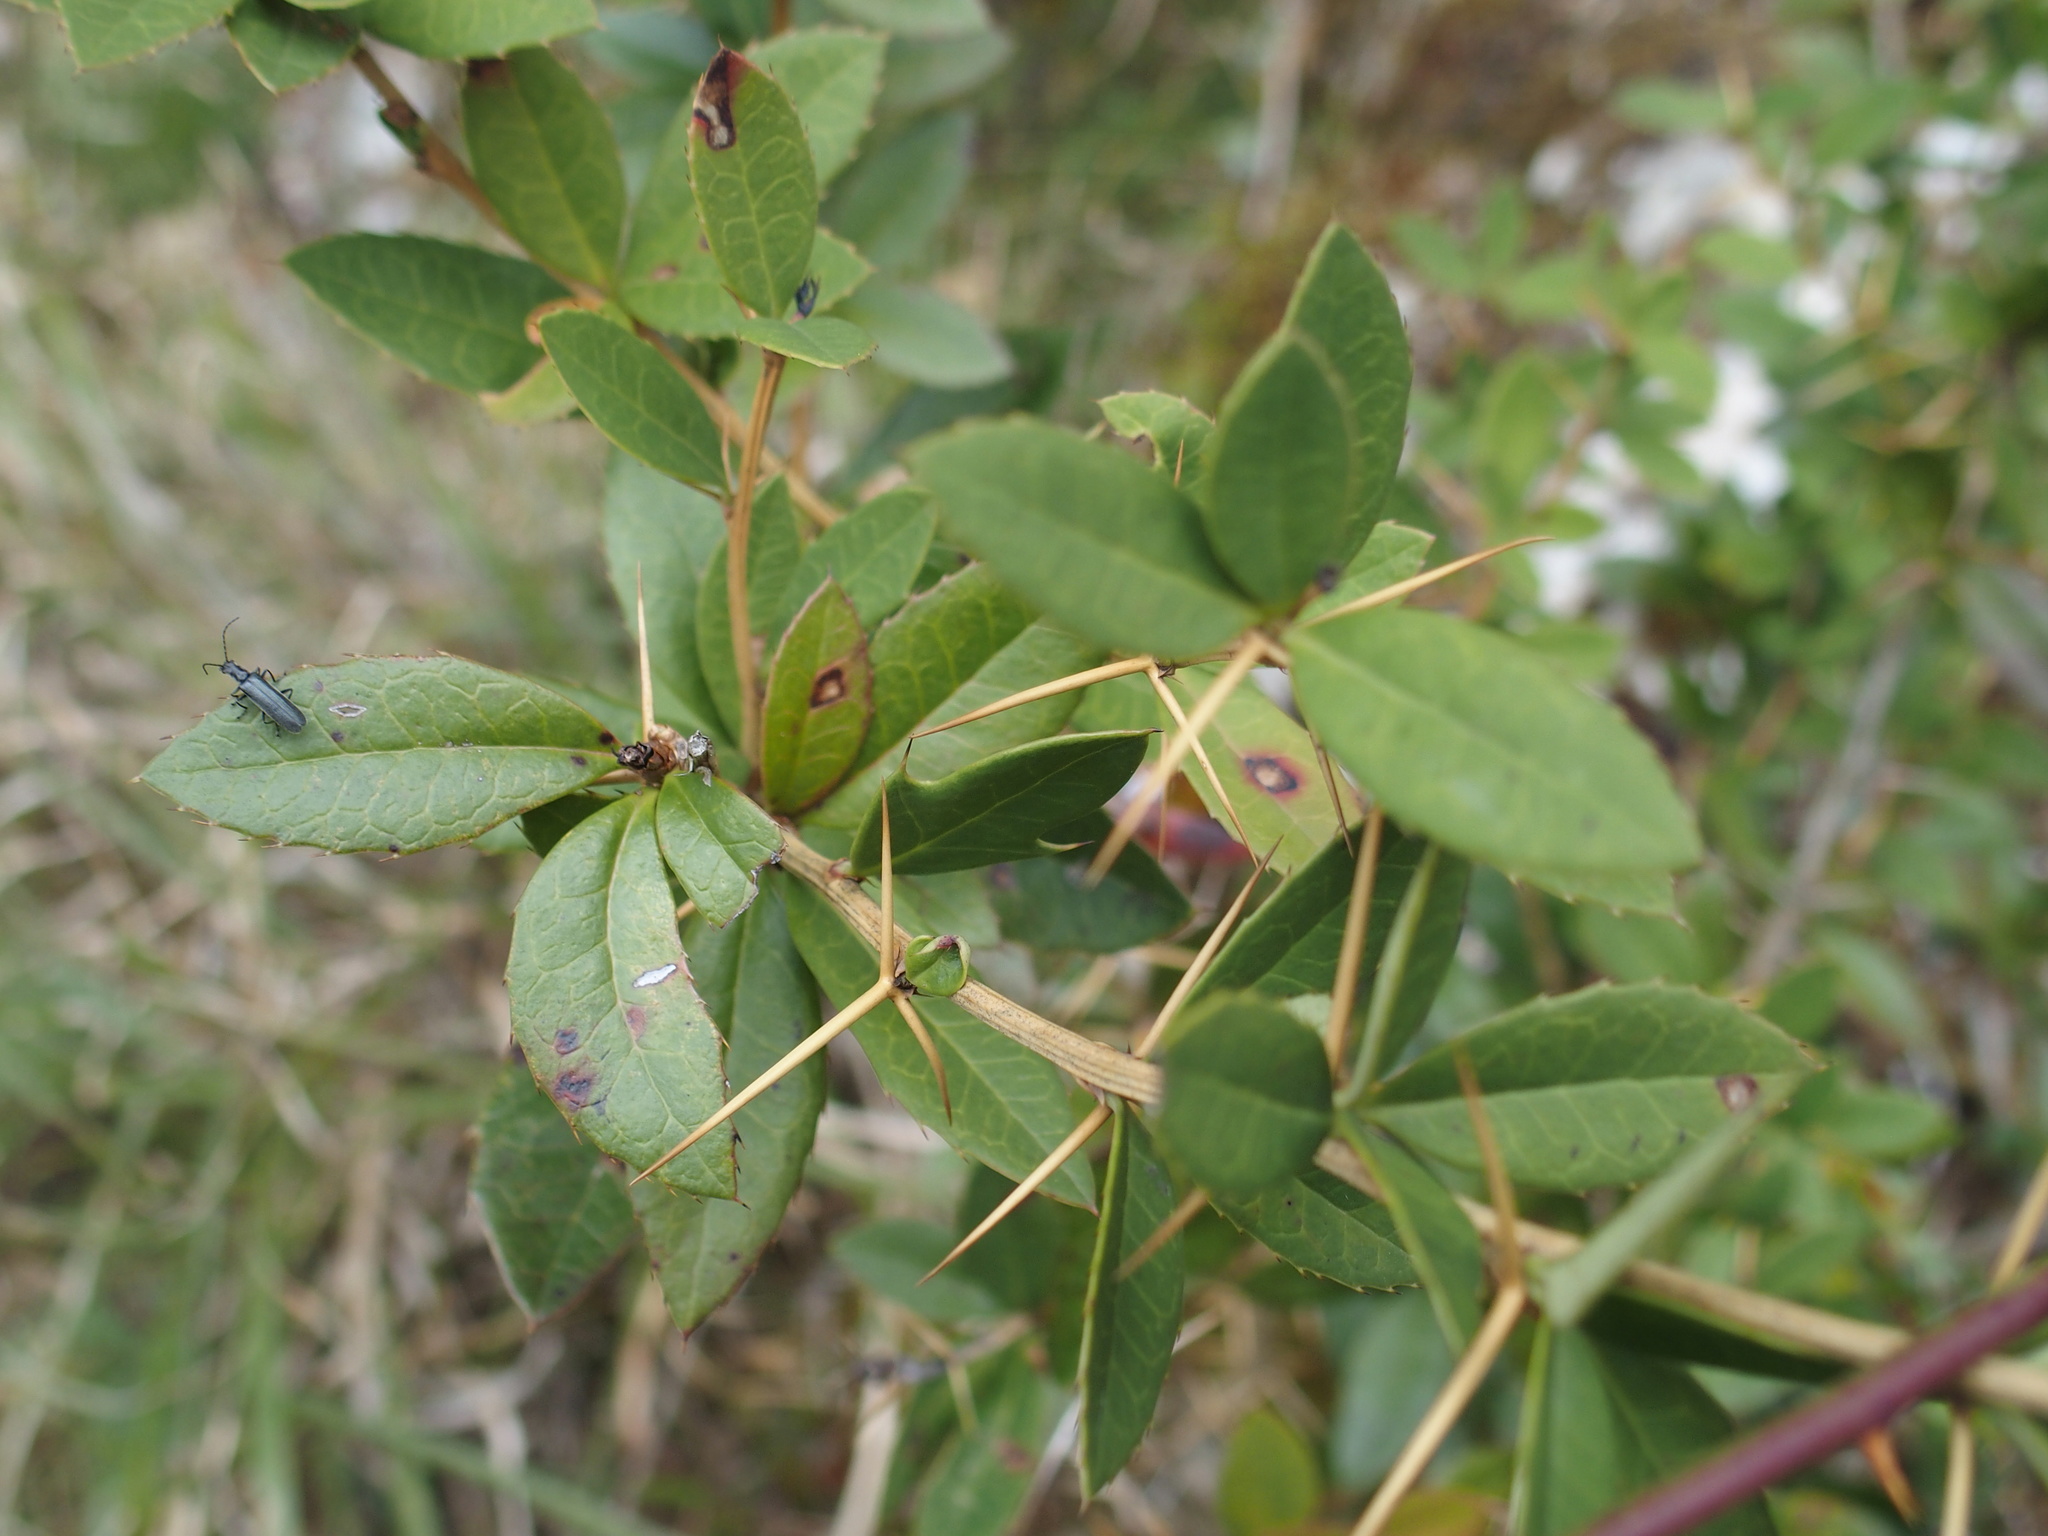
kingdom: Animalia
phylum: Arthropoda
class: Insecta
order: Coleoptera
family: Cantharidae
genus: Lycocerus
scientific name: Lycocerus evangelium
